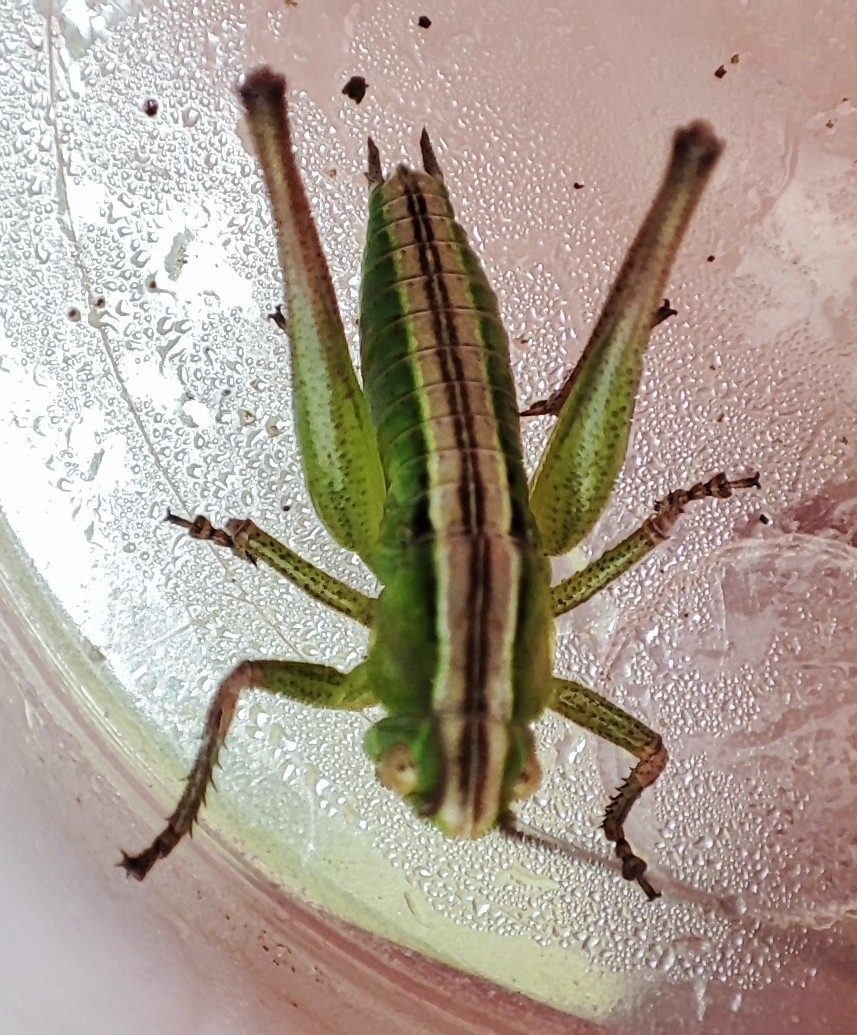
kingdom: Animalia
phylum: Arthropoda
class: Insecta
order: Orthoptera
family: Tettigoniidae
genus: Bicolorana
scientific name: Bicolorana bicolor
